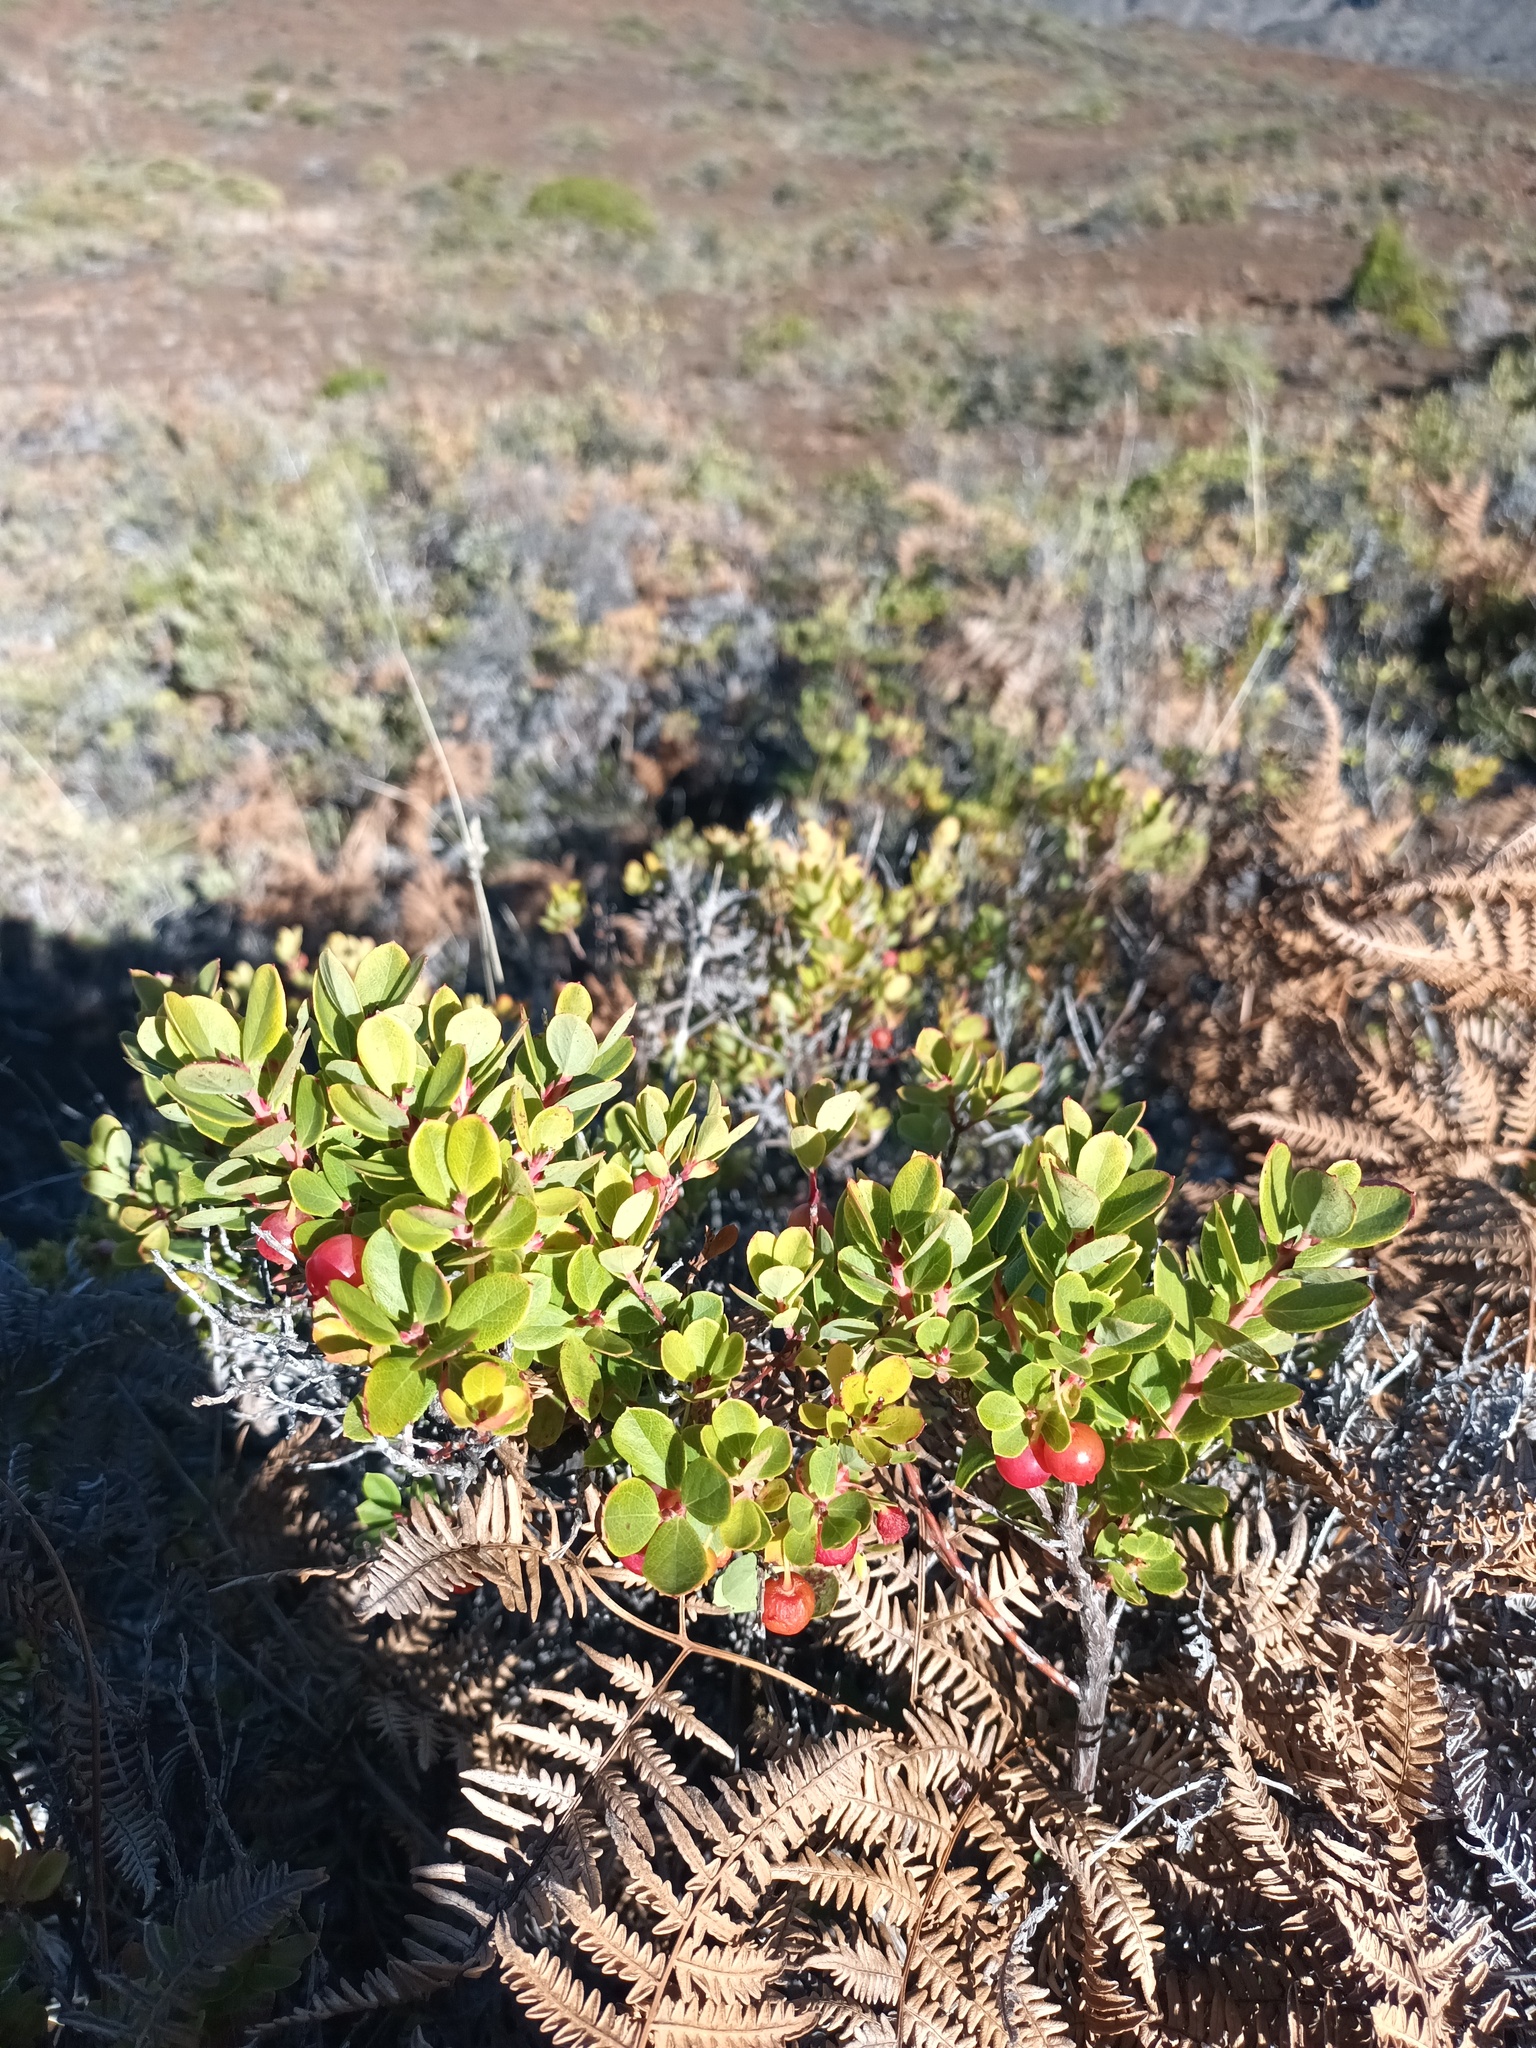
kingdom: Plantae
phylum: Tracheophyta
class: Magnoliopsida
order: Ericales
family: Ericaceae
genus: Vaccinium
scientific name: Vaccinium reticulatum
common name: Ohelo
